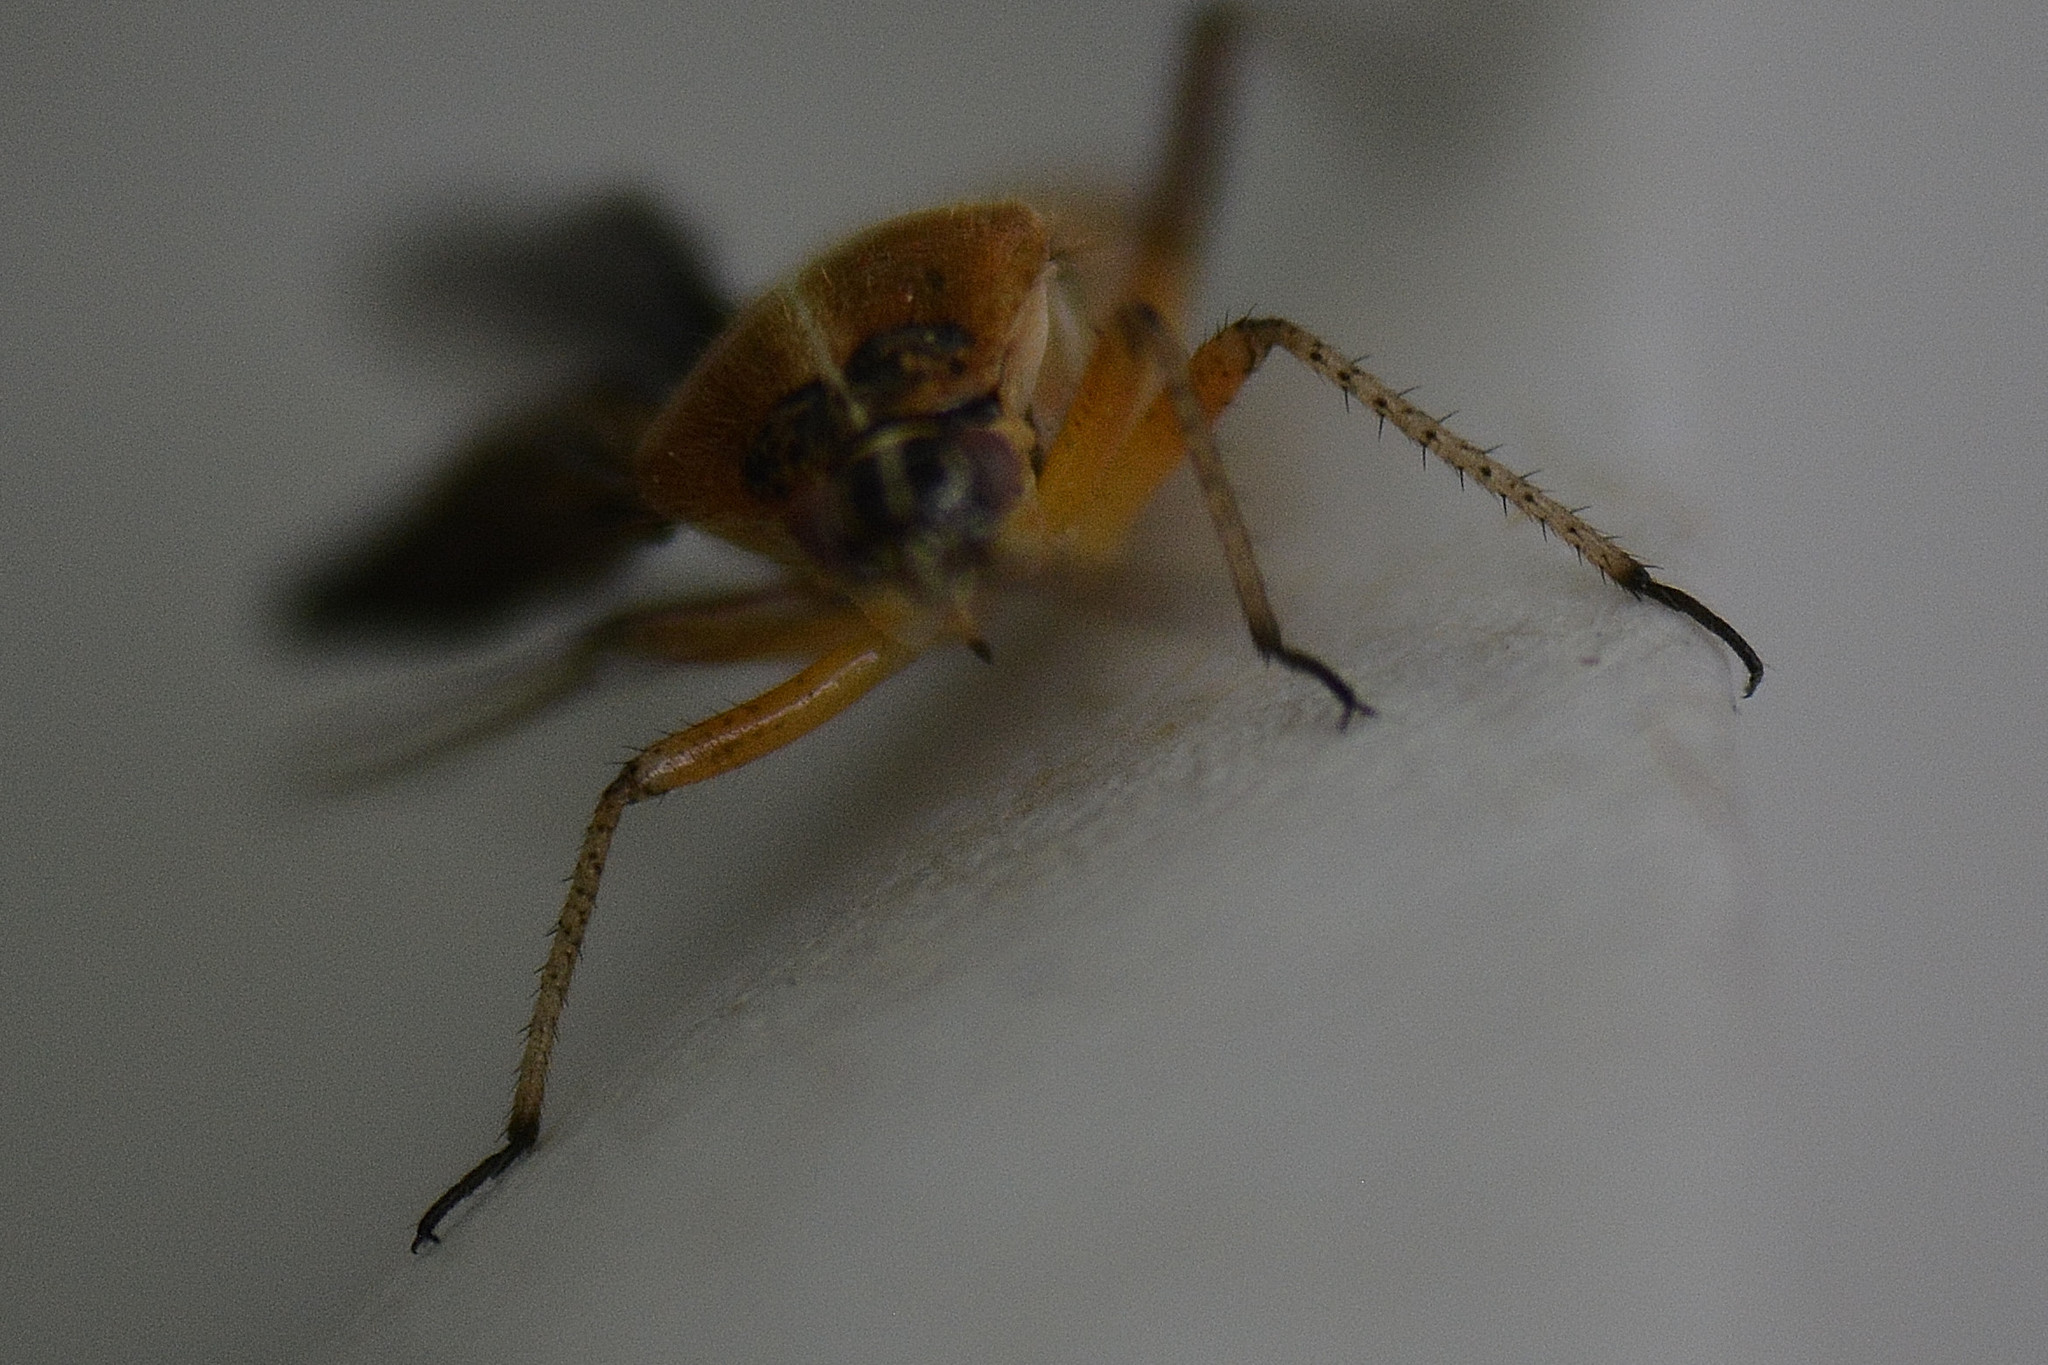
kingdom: Animalia
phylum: Arthropoda
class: Insecta
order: Hemiptera
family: Miridae
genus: Harpocera
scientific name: Harpocera thoracica
